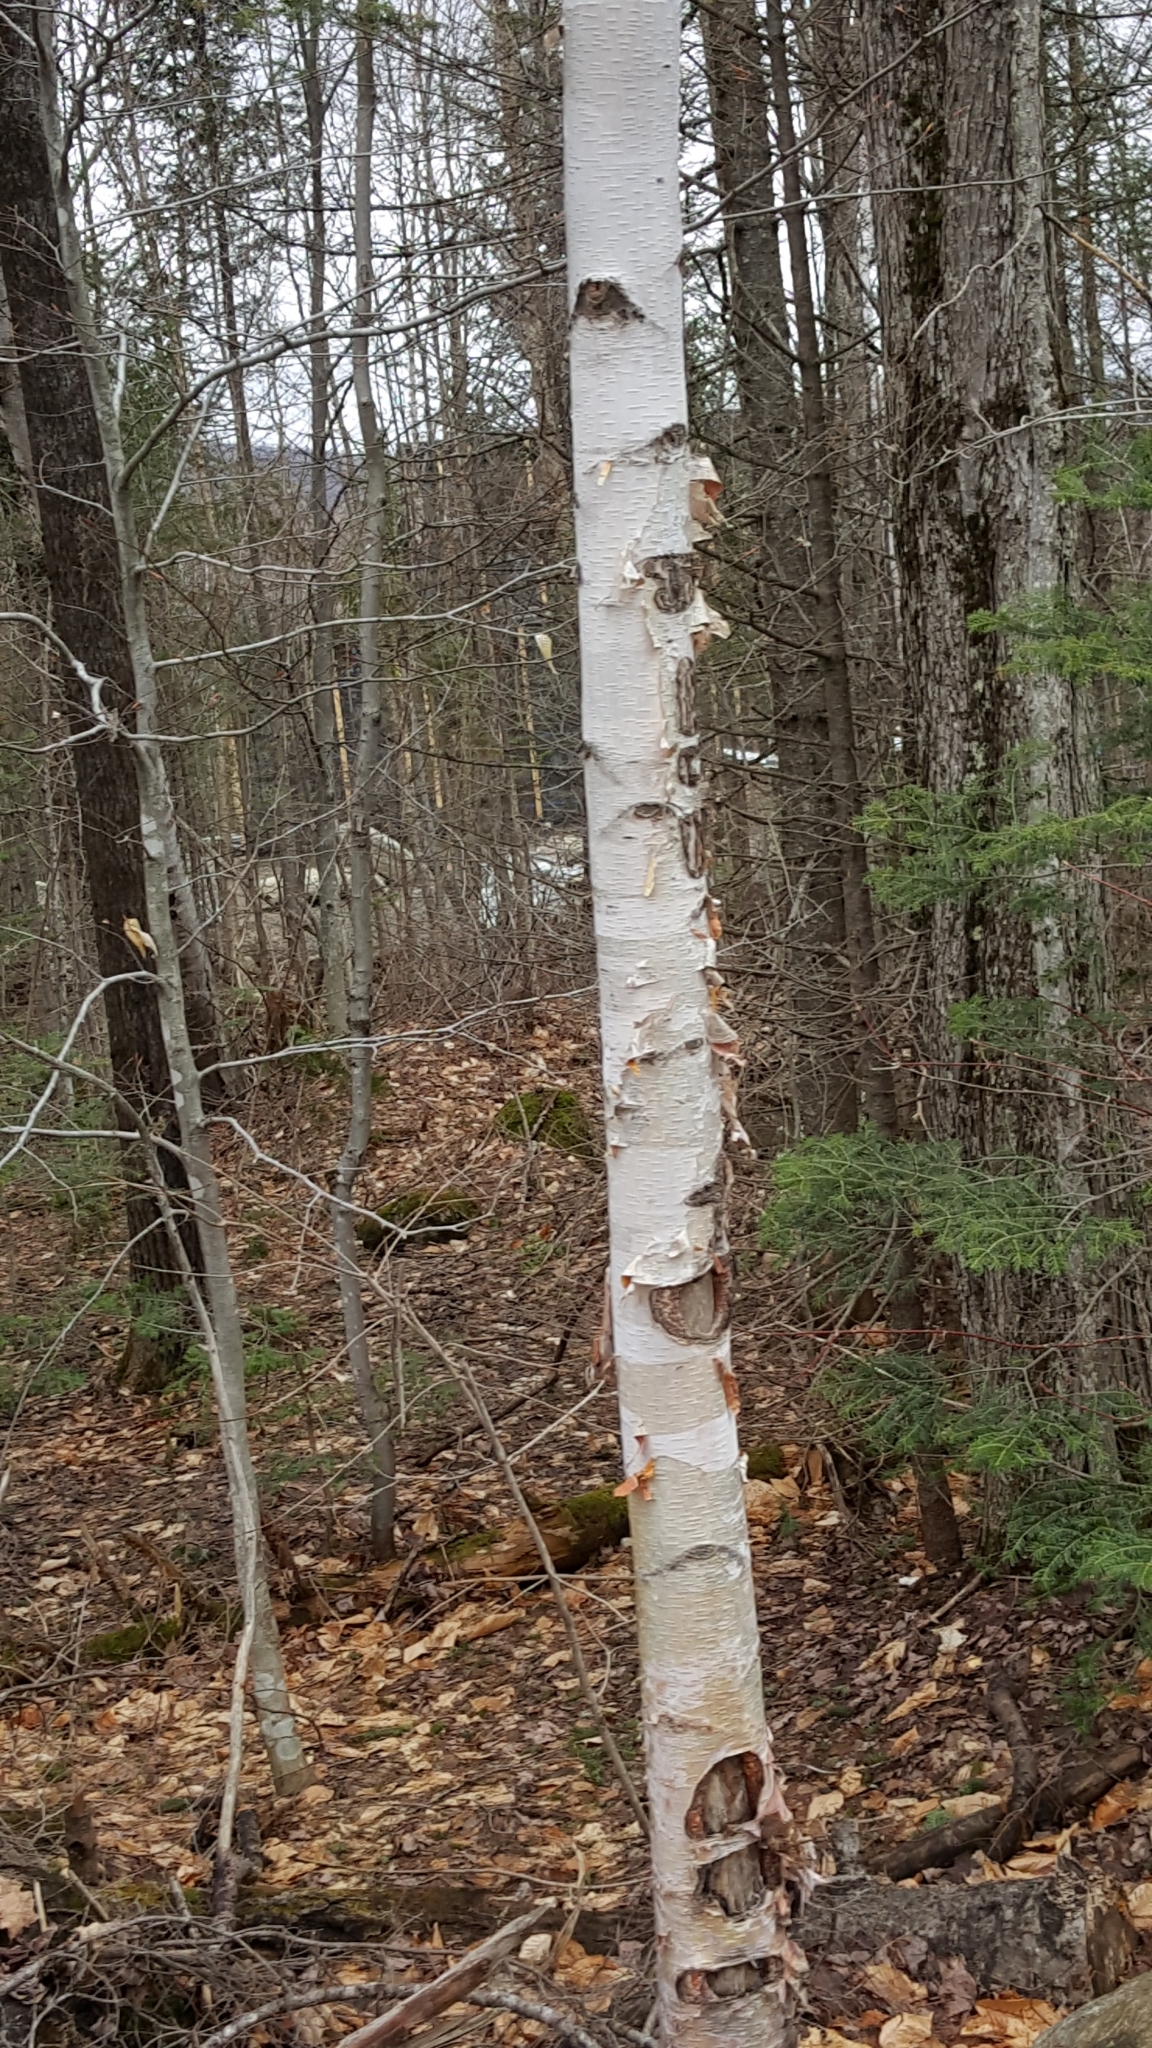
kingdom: Plantae
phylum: Tracheophyta
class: Magnoliopsida
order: Fagales
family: Betulaceae
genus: Betula
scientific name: Betula papyrifera
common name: Paper birch
